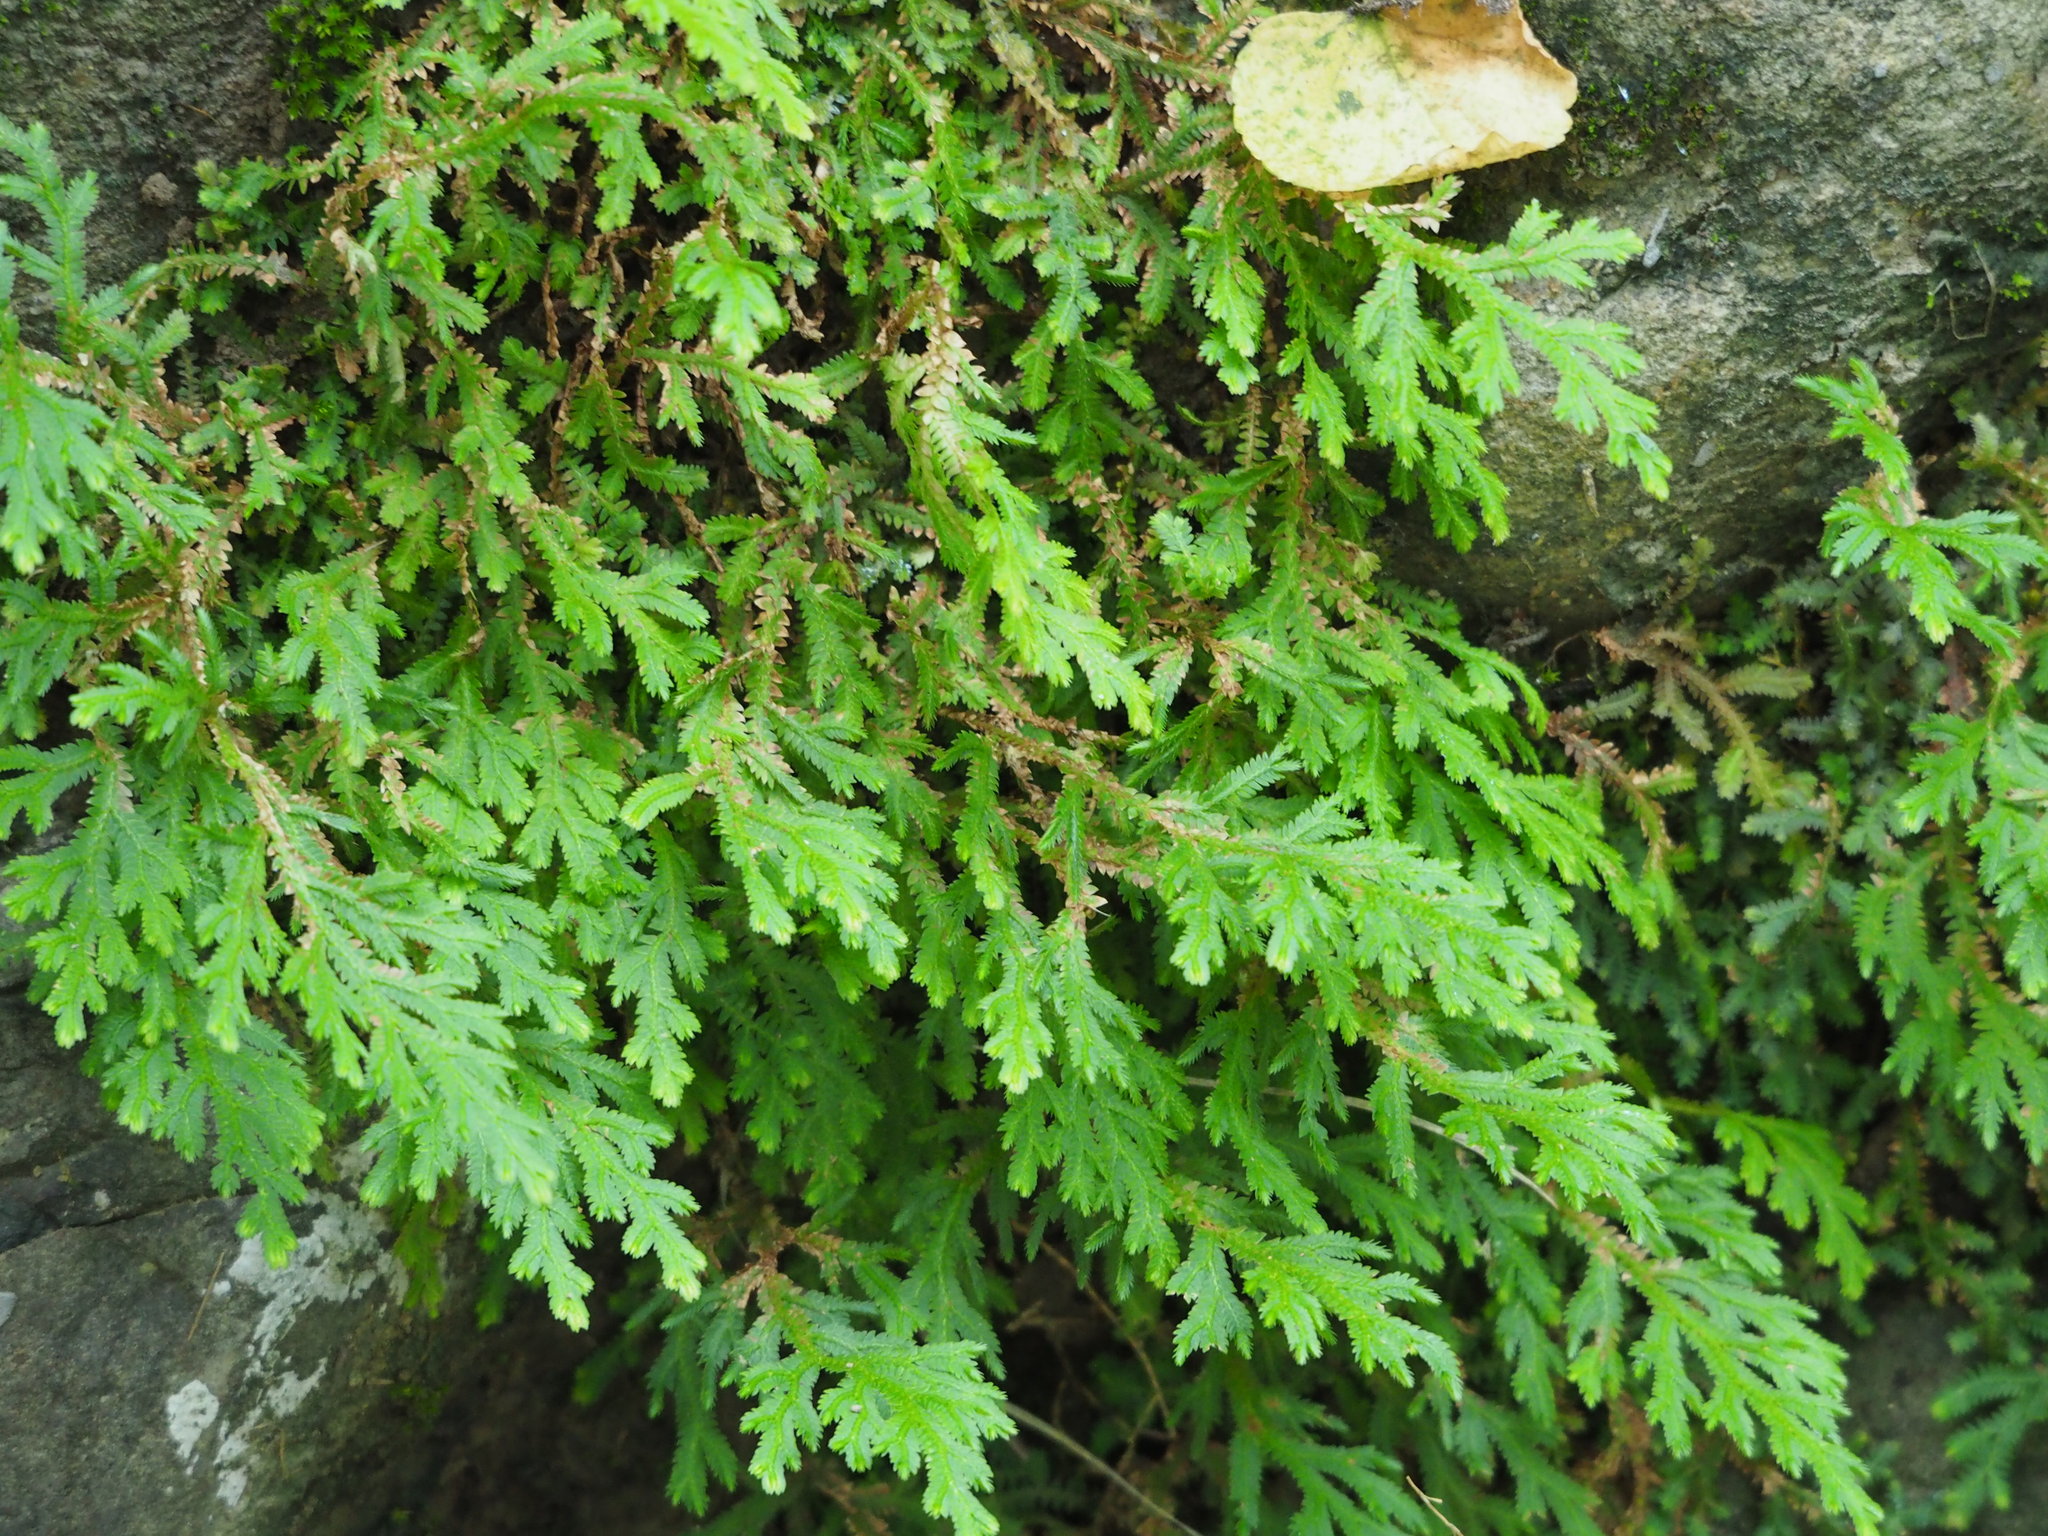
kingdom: Plantae
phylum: Tracheophyta
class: Lycopodiopsida
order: Selaginellales
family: Selaginellaceae
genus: Selaginella
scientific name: Selaginella repanda
